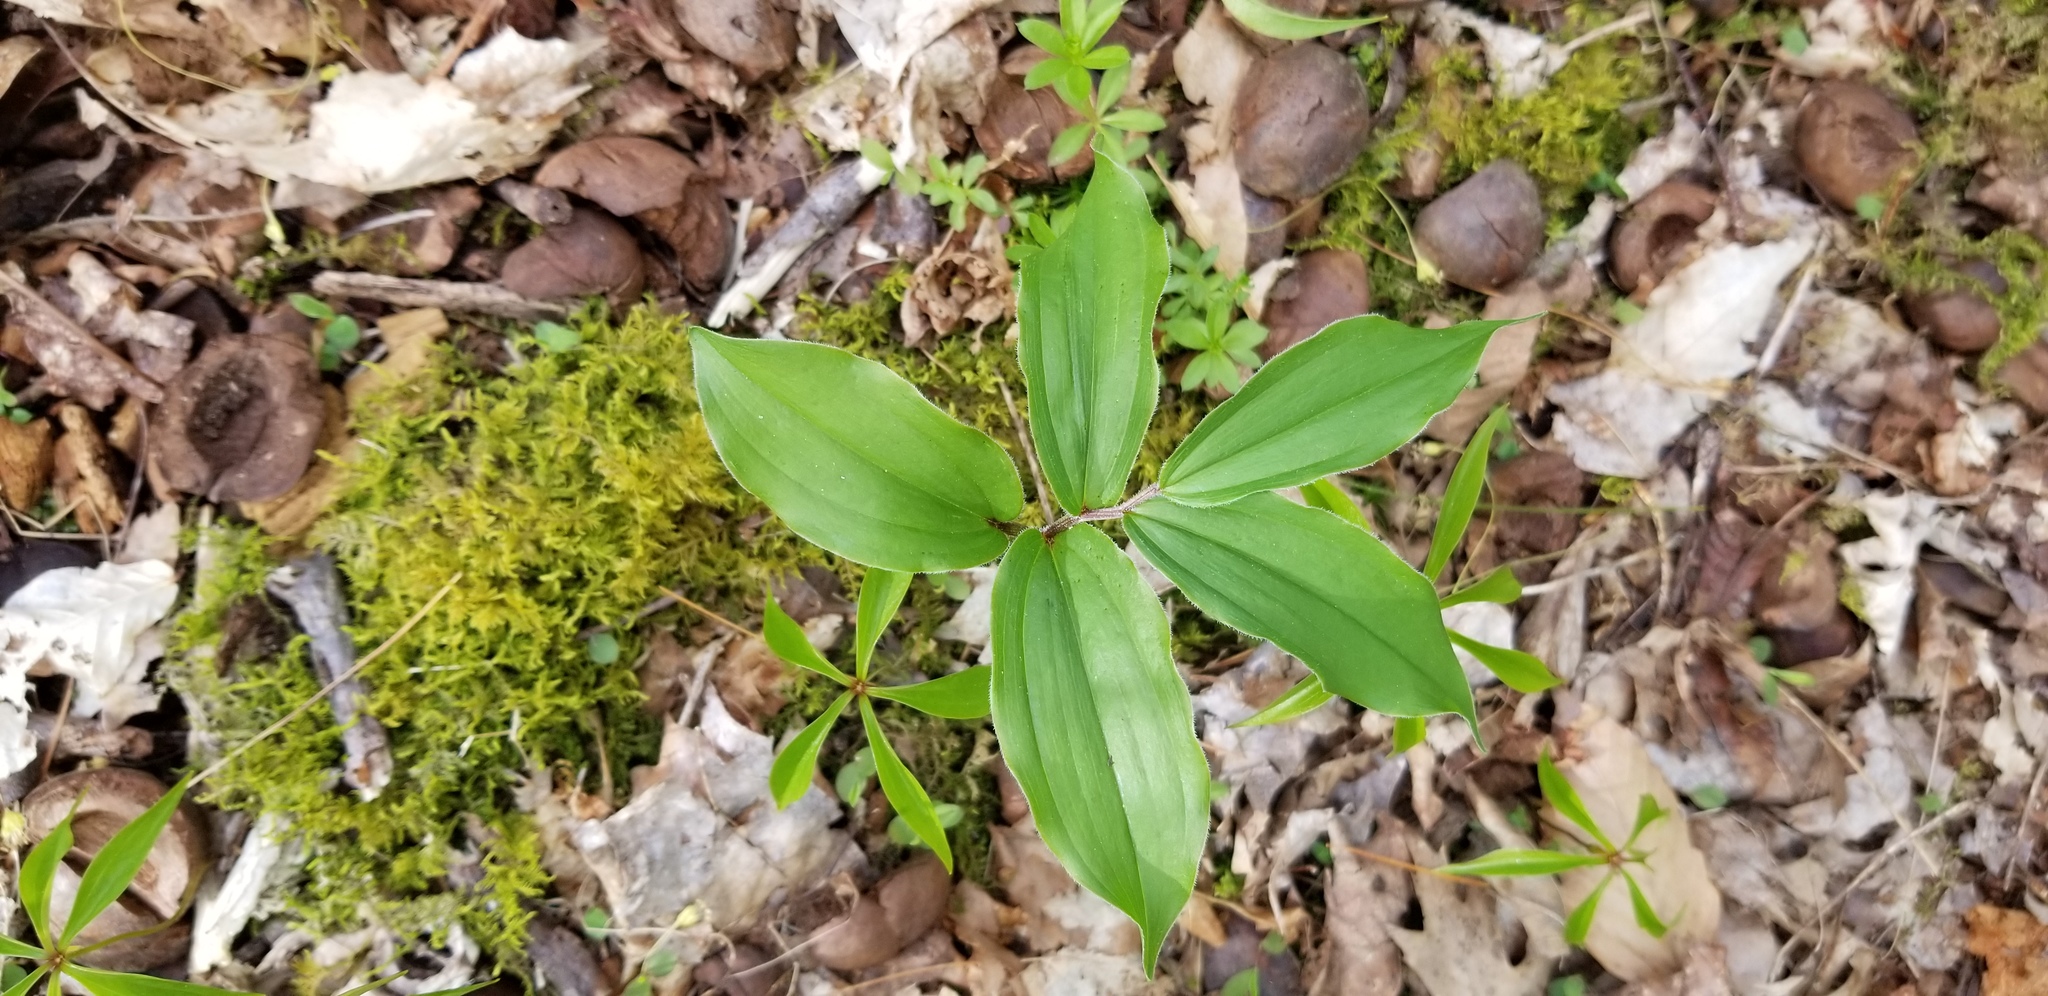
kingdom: Plantae
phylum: Tracheophyta
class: Liliopsida
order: Asparagales
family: Asparagaceae
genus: Maianthemum
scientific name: Maianthemum racemosum
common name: False spikenard
